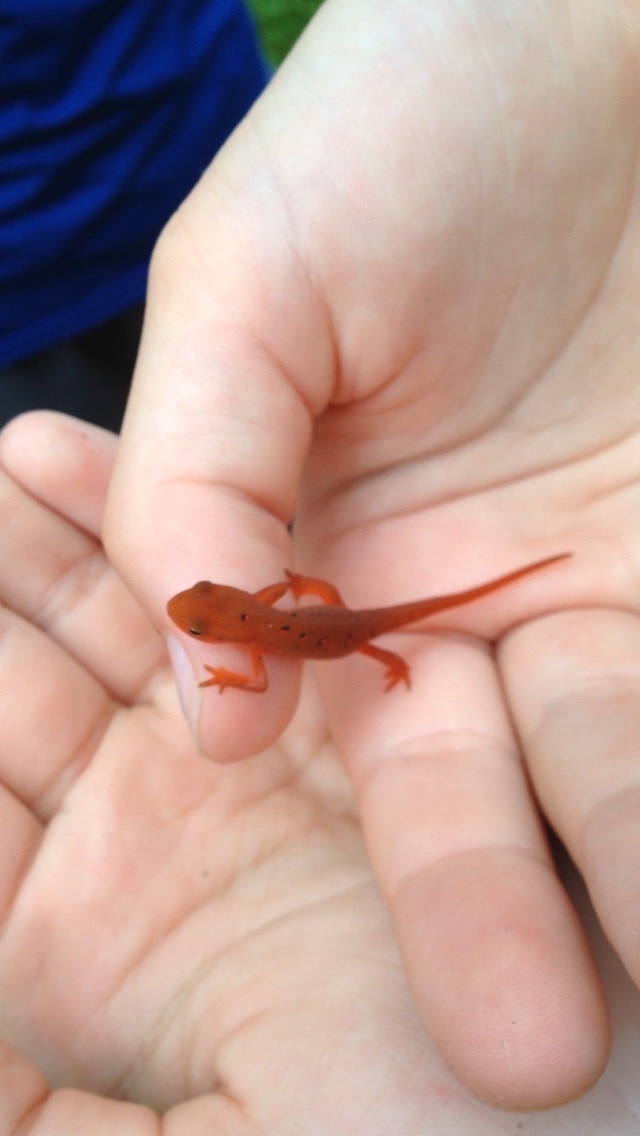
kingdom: Animalia
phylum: Chordata
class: Amphibia
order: Caudata
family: Salamandridae
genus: Notophthalmus
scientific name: Notophthalmus viridescens
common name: Eastern newt
